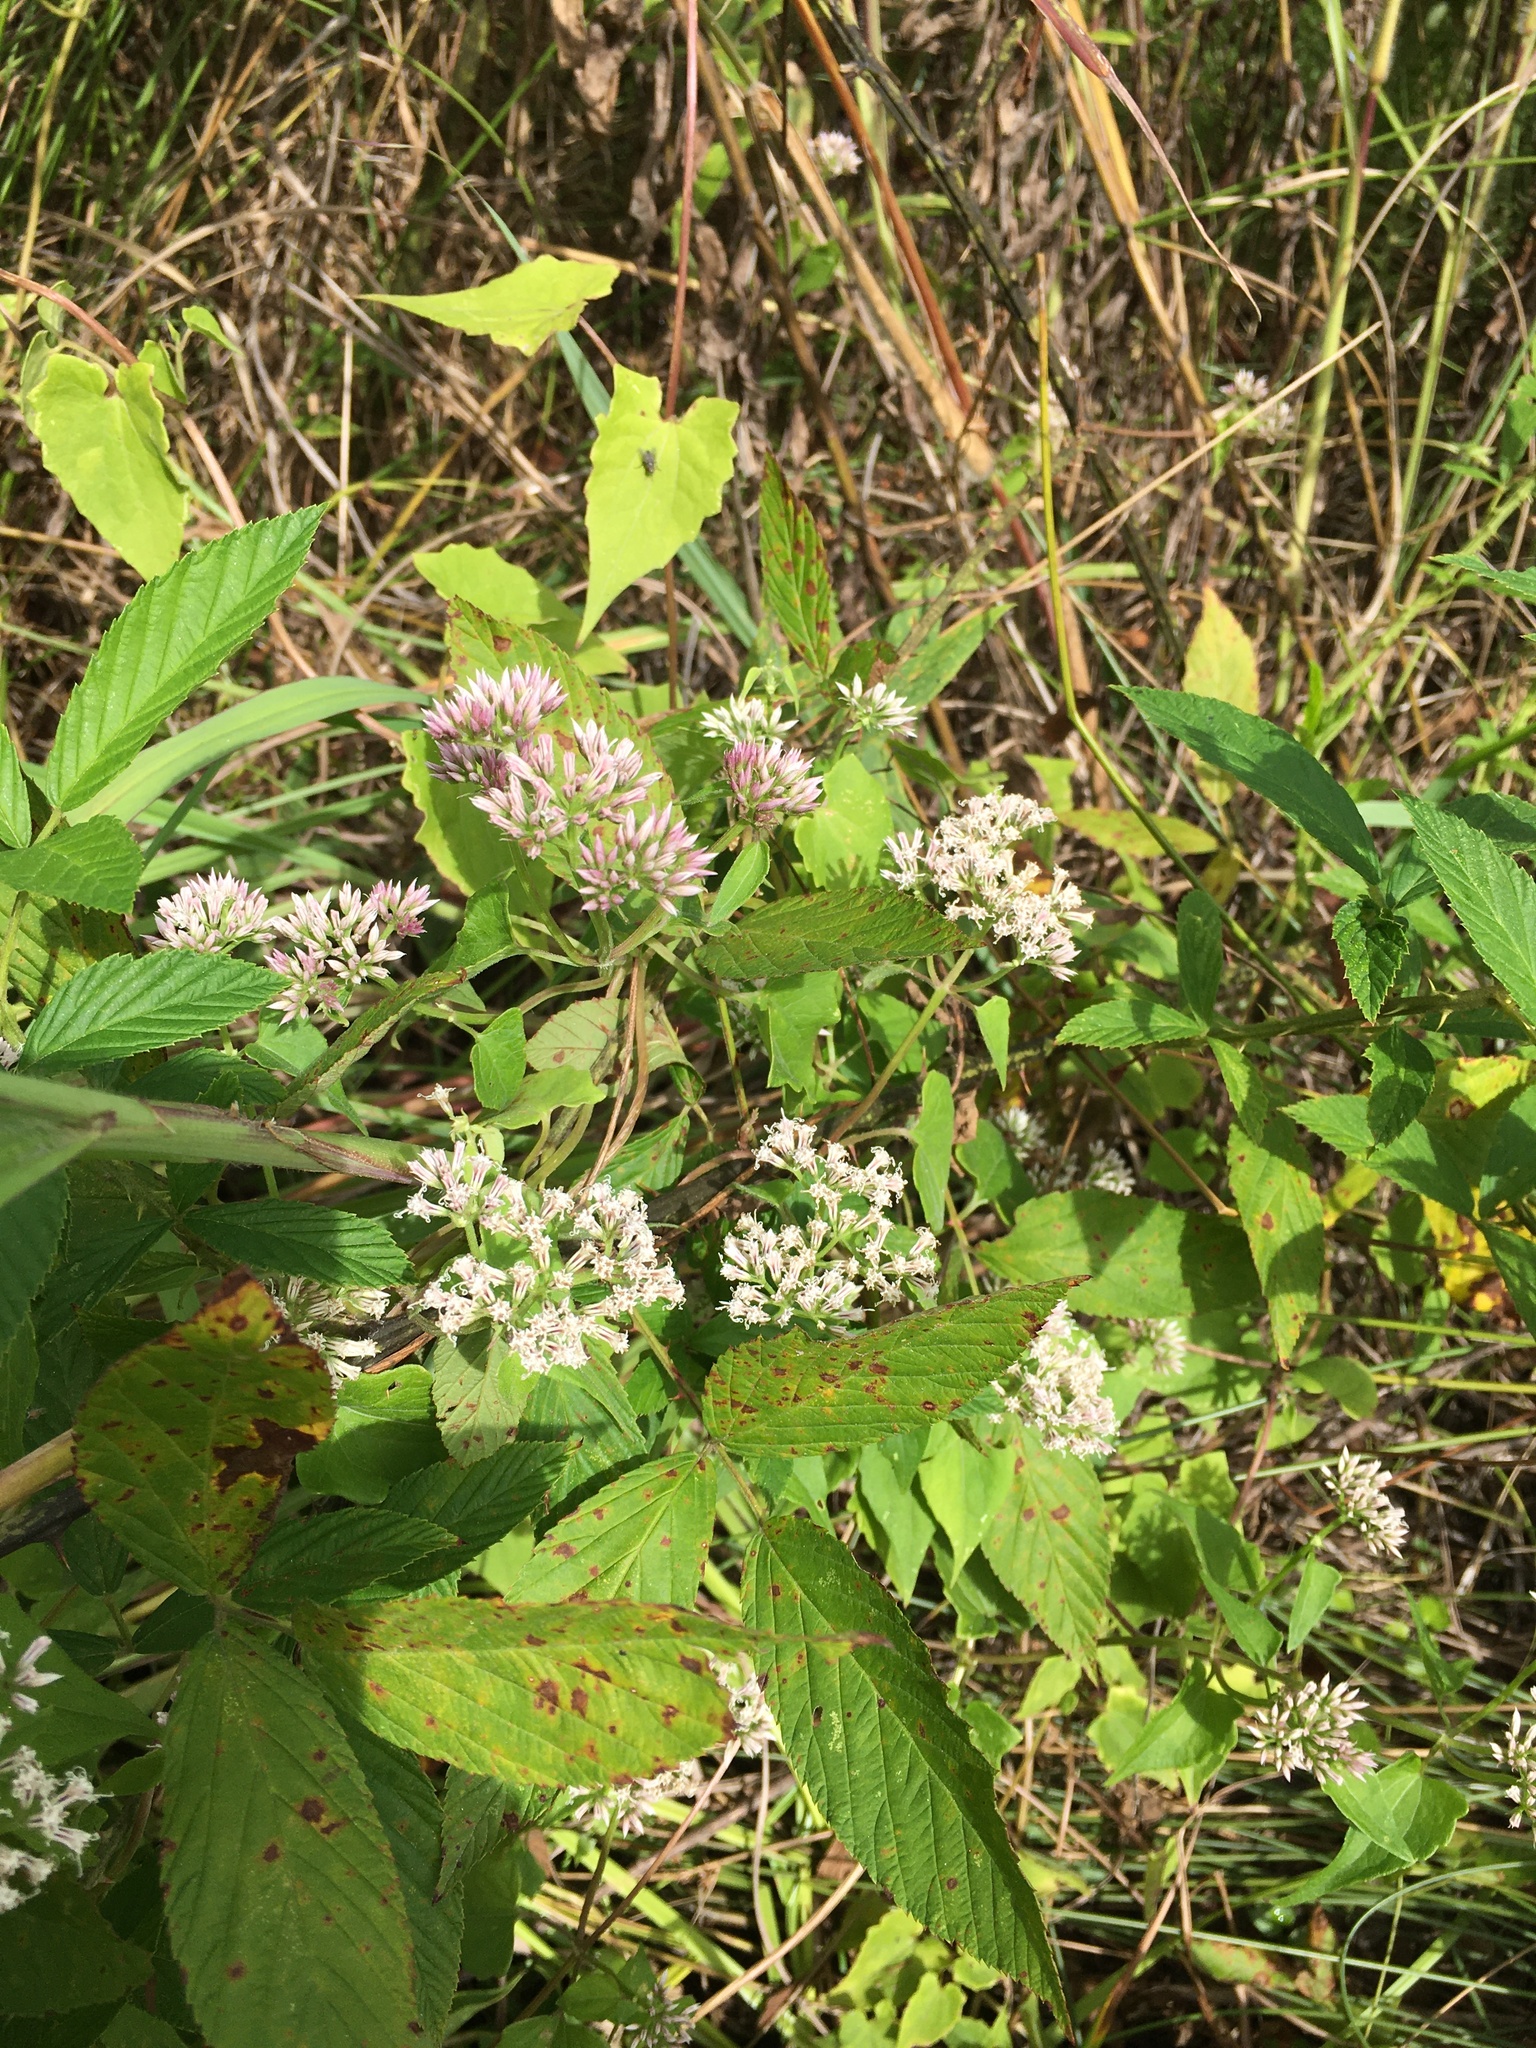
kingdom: Plantae
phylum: Tracheophyta
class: Magnoliopsida
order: Asterales
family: Asteraceae
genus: Mikania
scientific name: Mikania scandens
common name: Climbing hempvine
